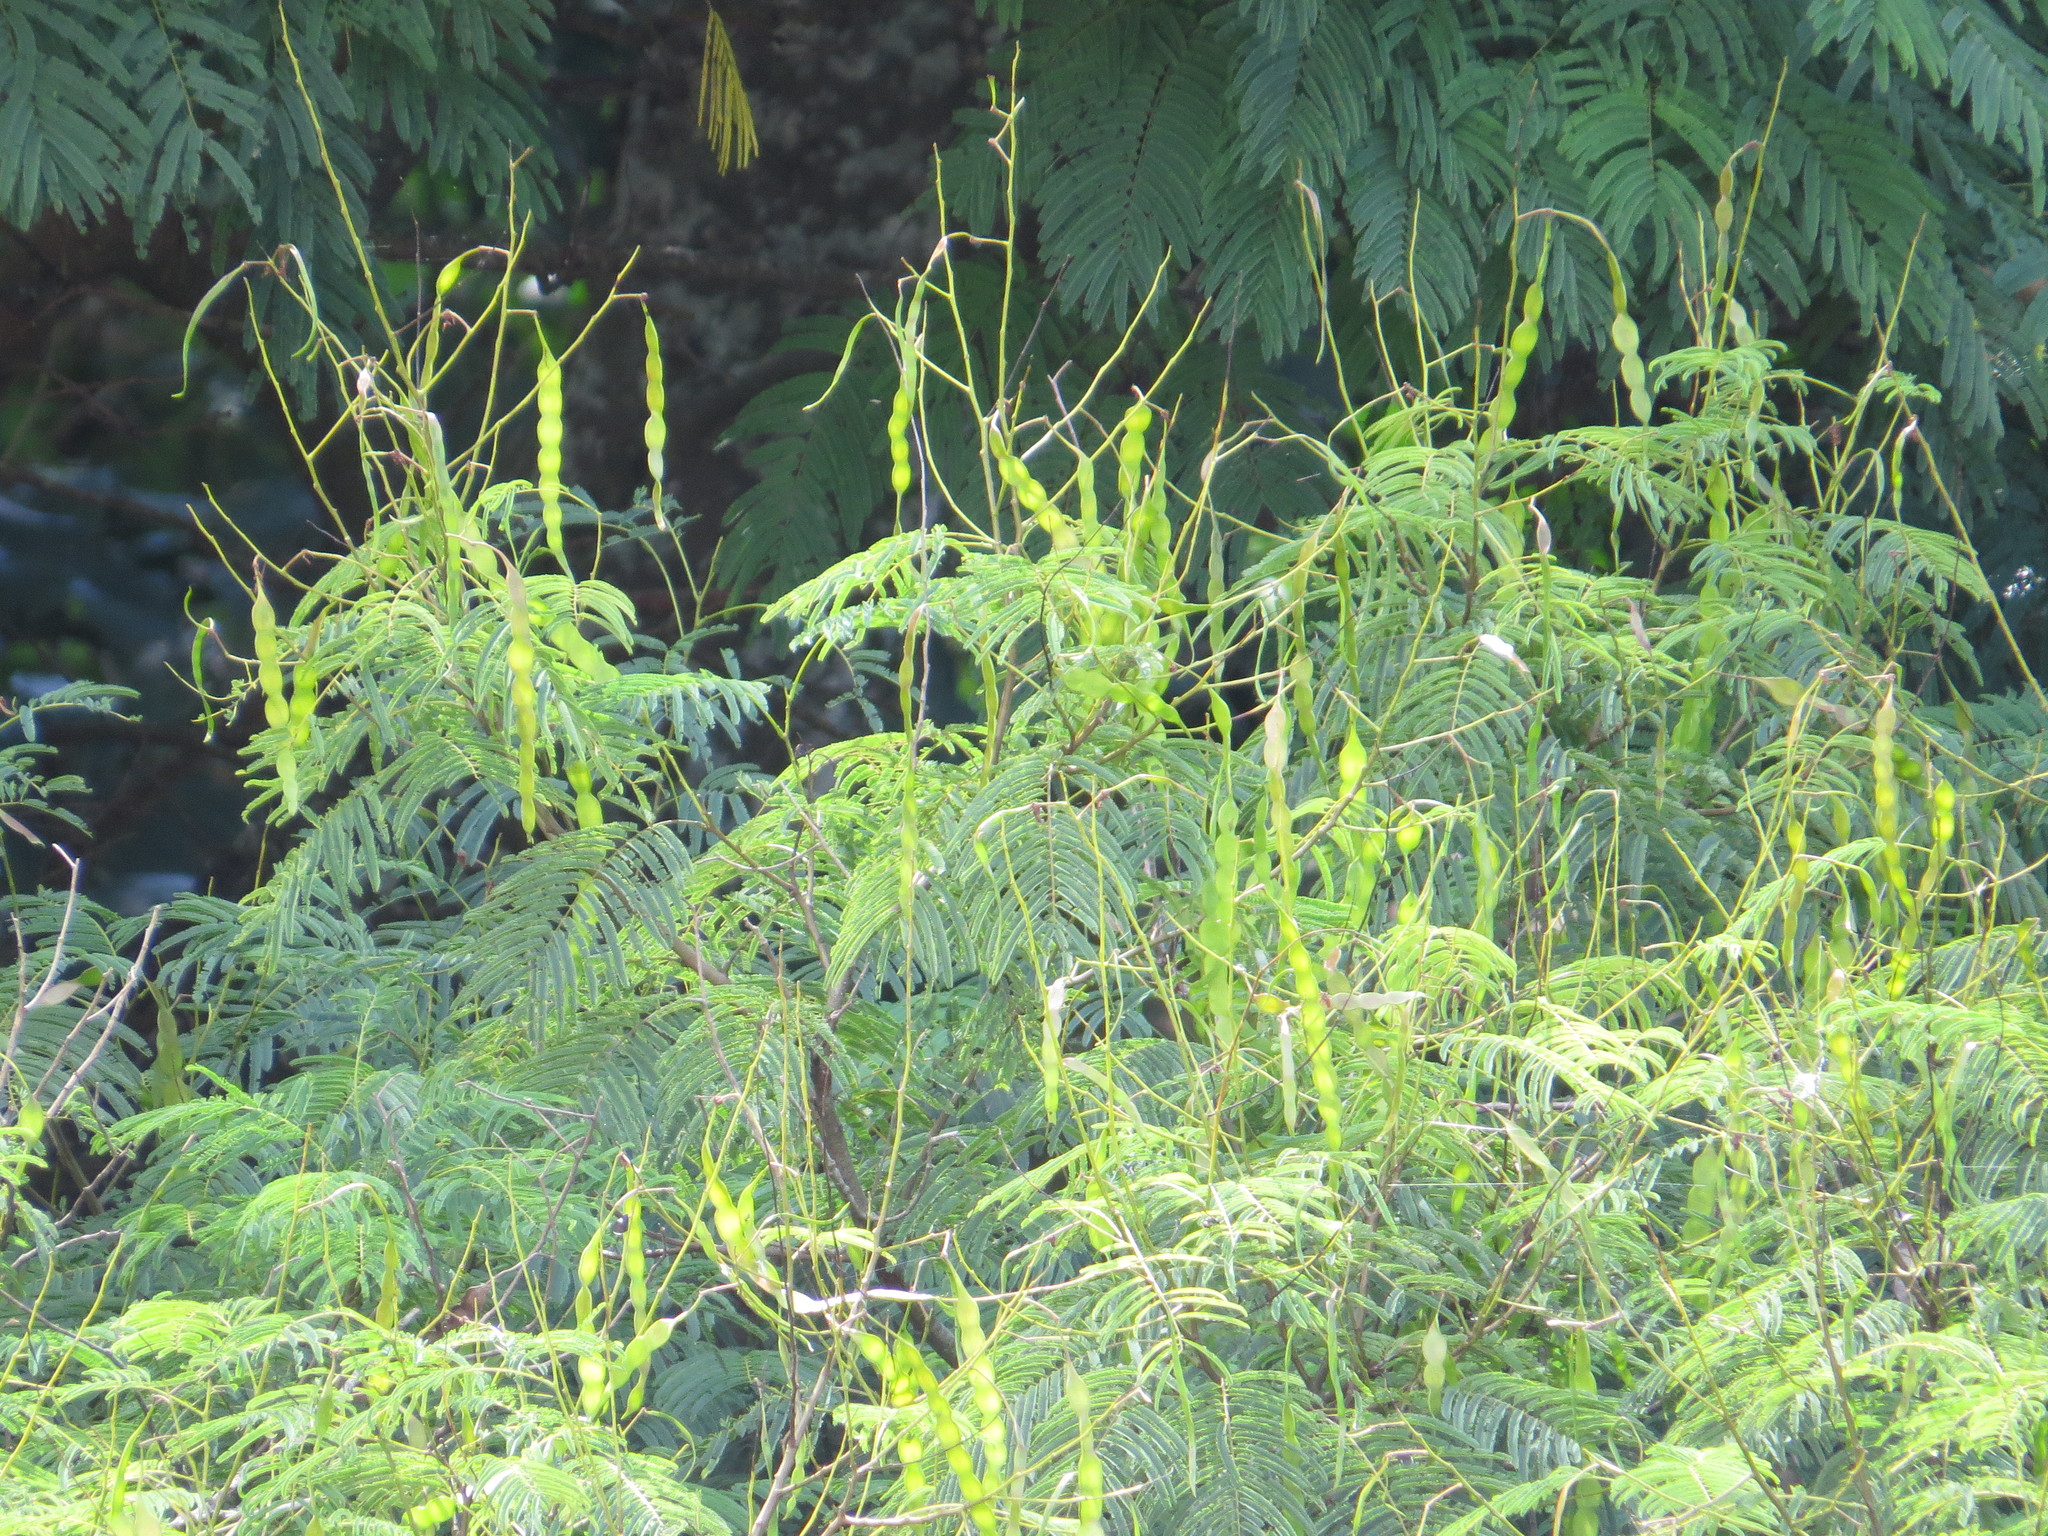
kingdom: Plantae
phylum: Tracheophyta
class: Magnoliopsida
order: Fabales
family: Fabaceae
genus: Anadenanthera
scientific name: Anadenanthera colubrina
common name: Curupay
